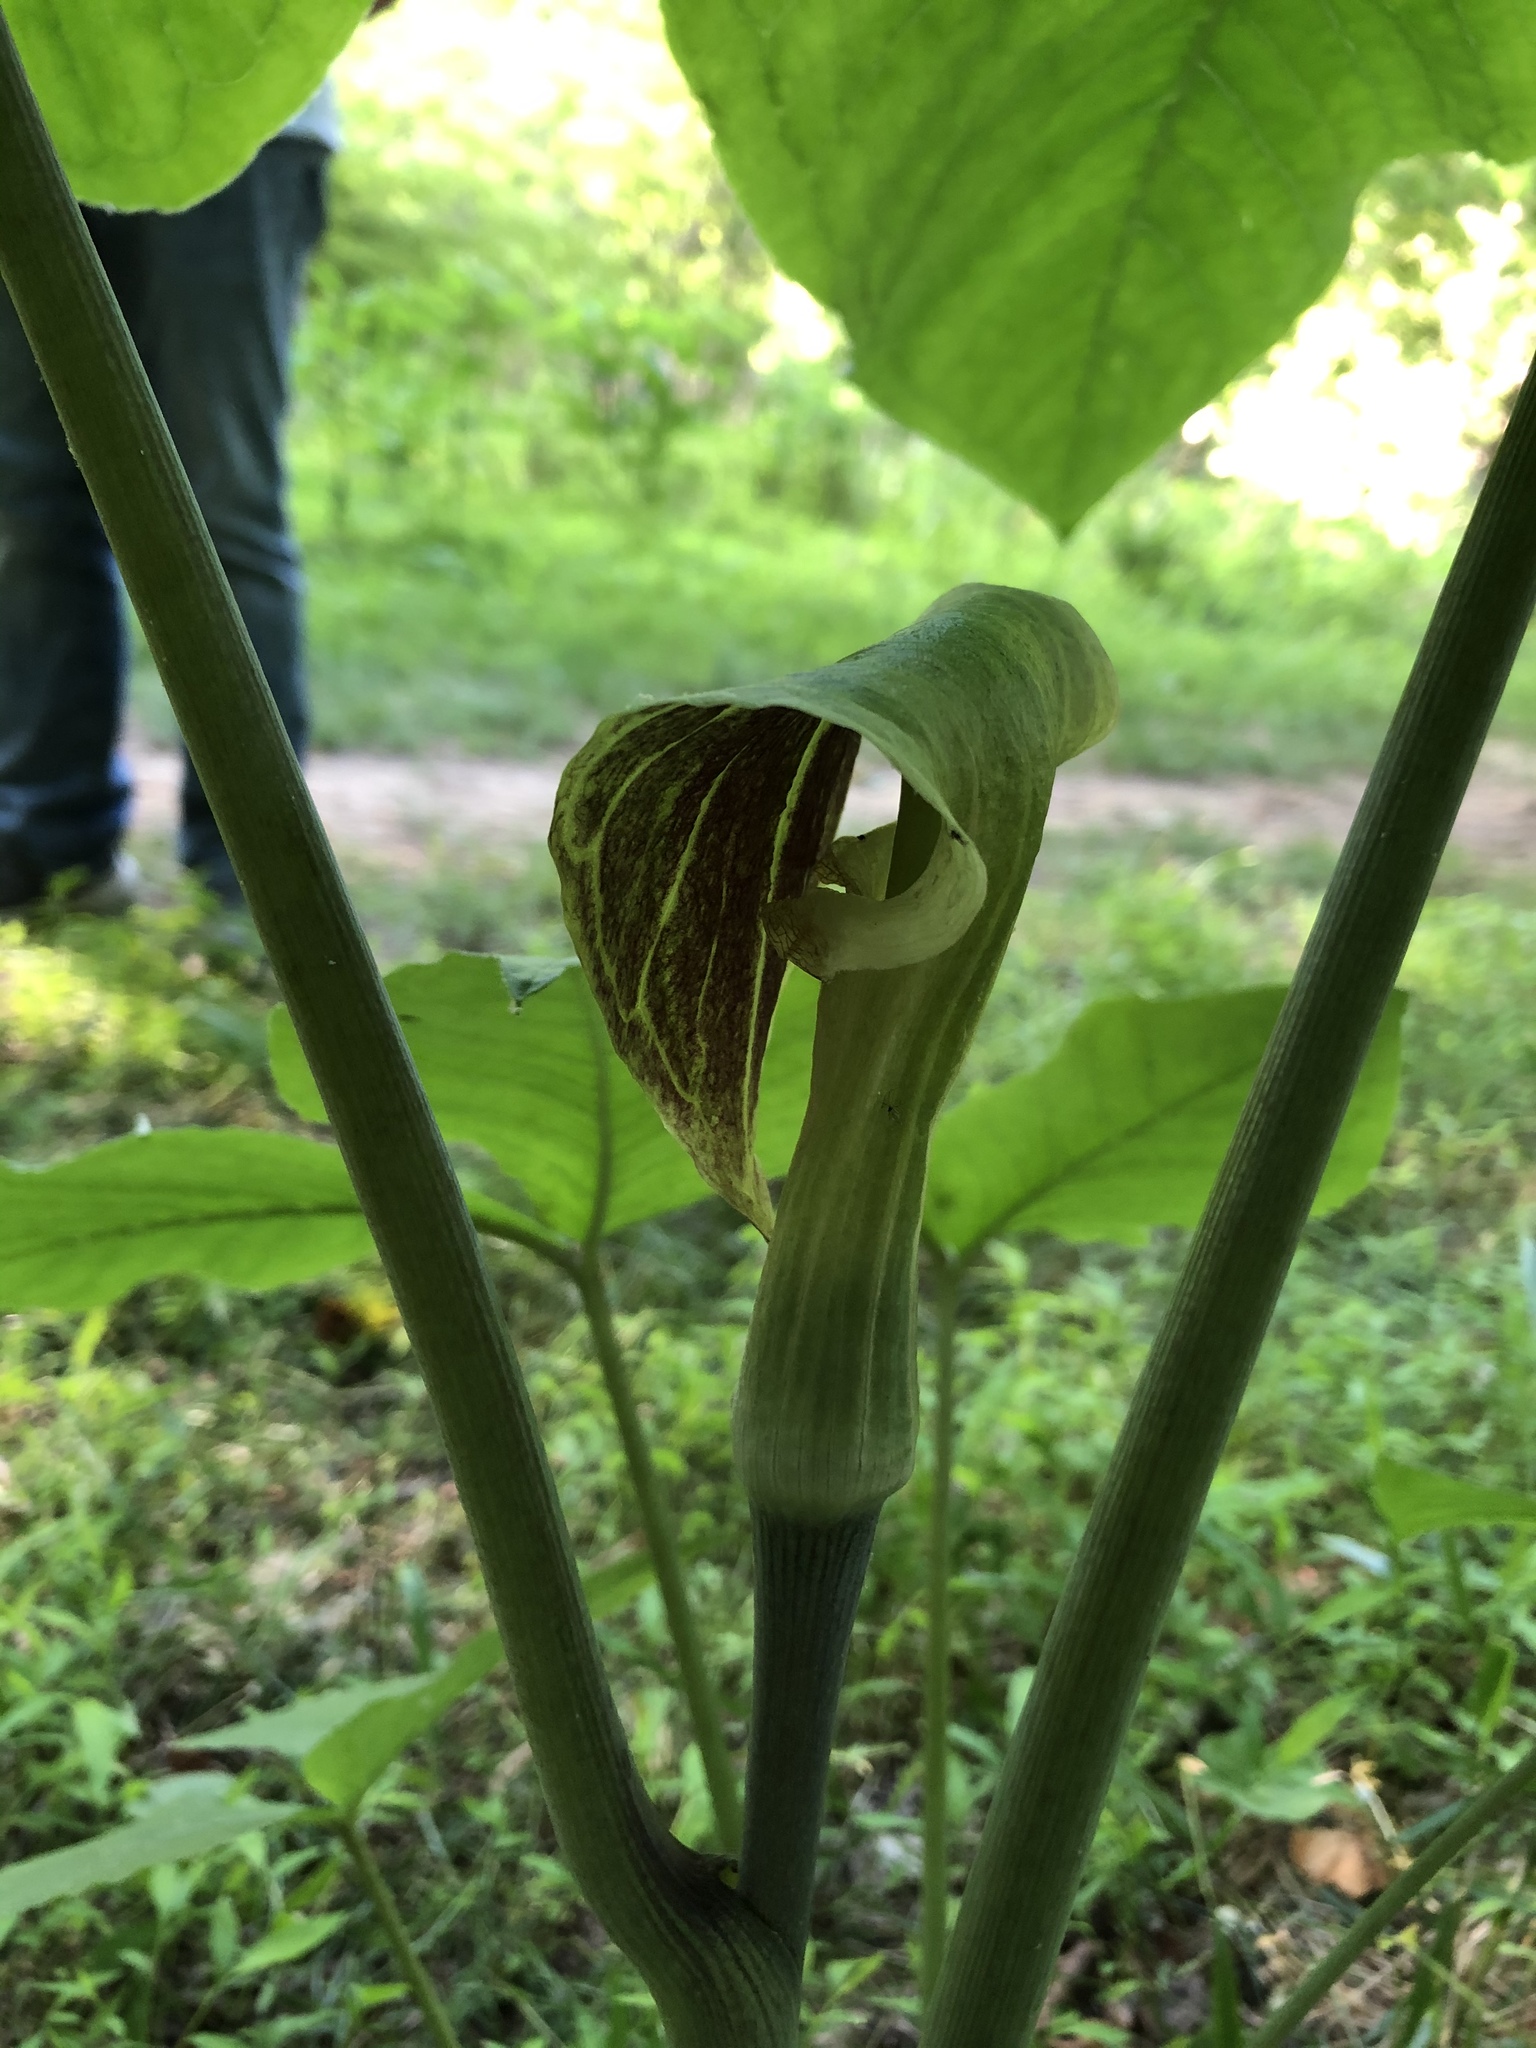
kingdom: Plantae
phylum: Tracheophyta
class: Liliopsida
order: Alismatales
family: Araceae
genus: Arisaema
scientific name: Arisaema triphyllum
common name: Jack-in-the-pulpit
